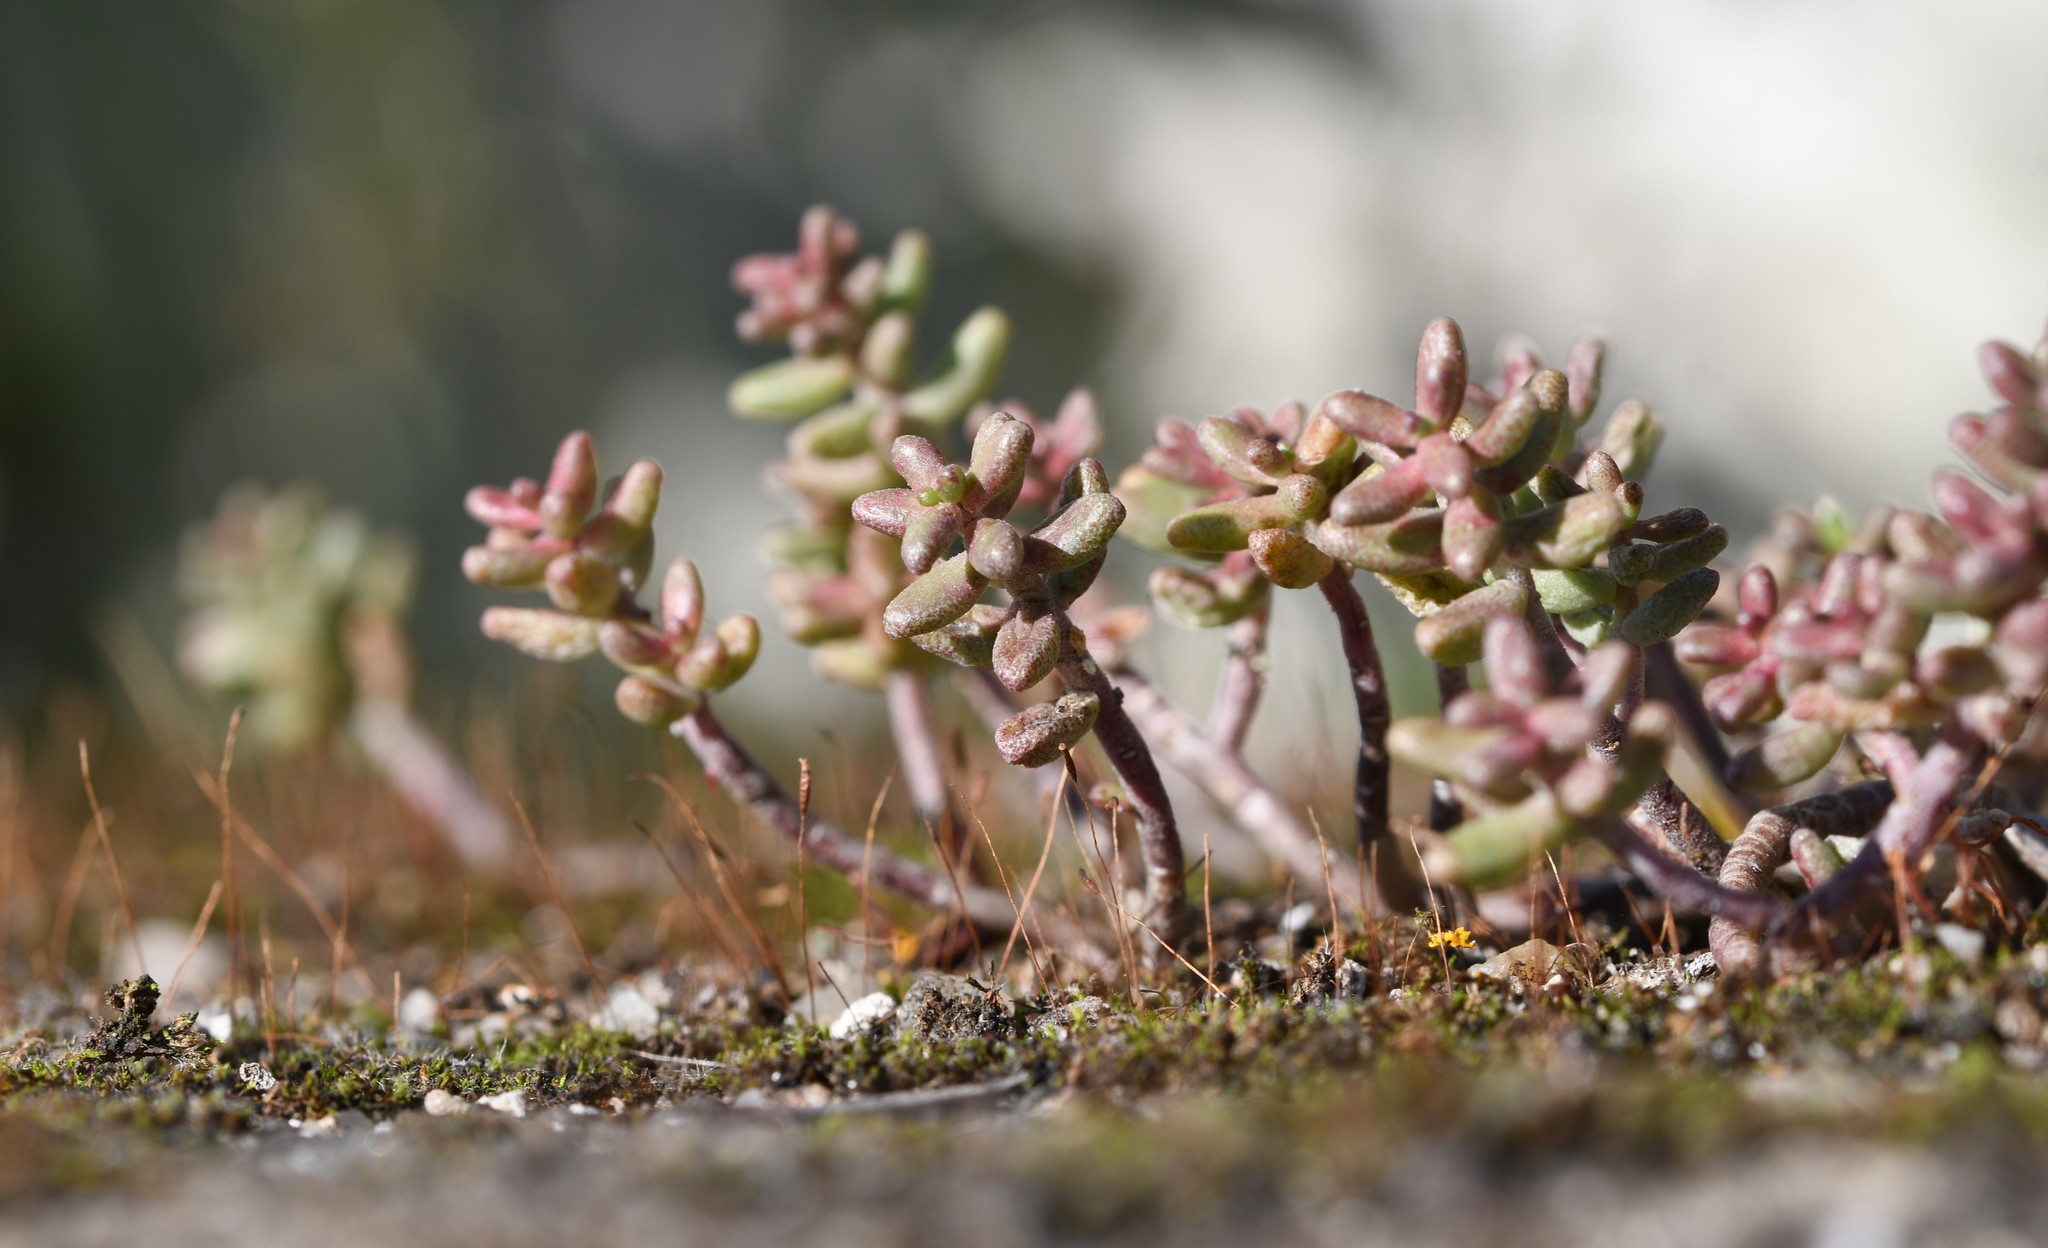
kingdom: Plantae
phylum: Tracheophyta
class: Magnoliopsida
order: Saxifragales
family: Crassulaceae
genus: Sedum
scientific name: Sedum album
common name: White stonecrop
